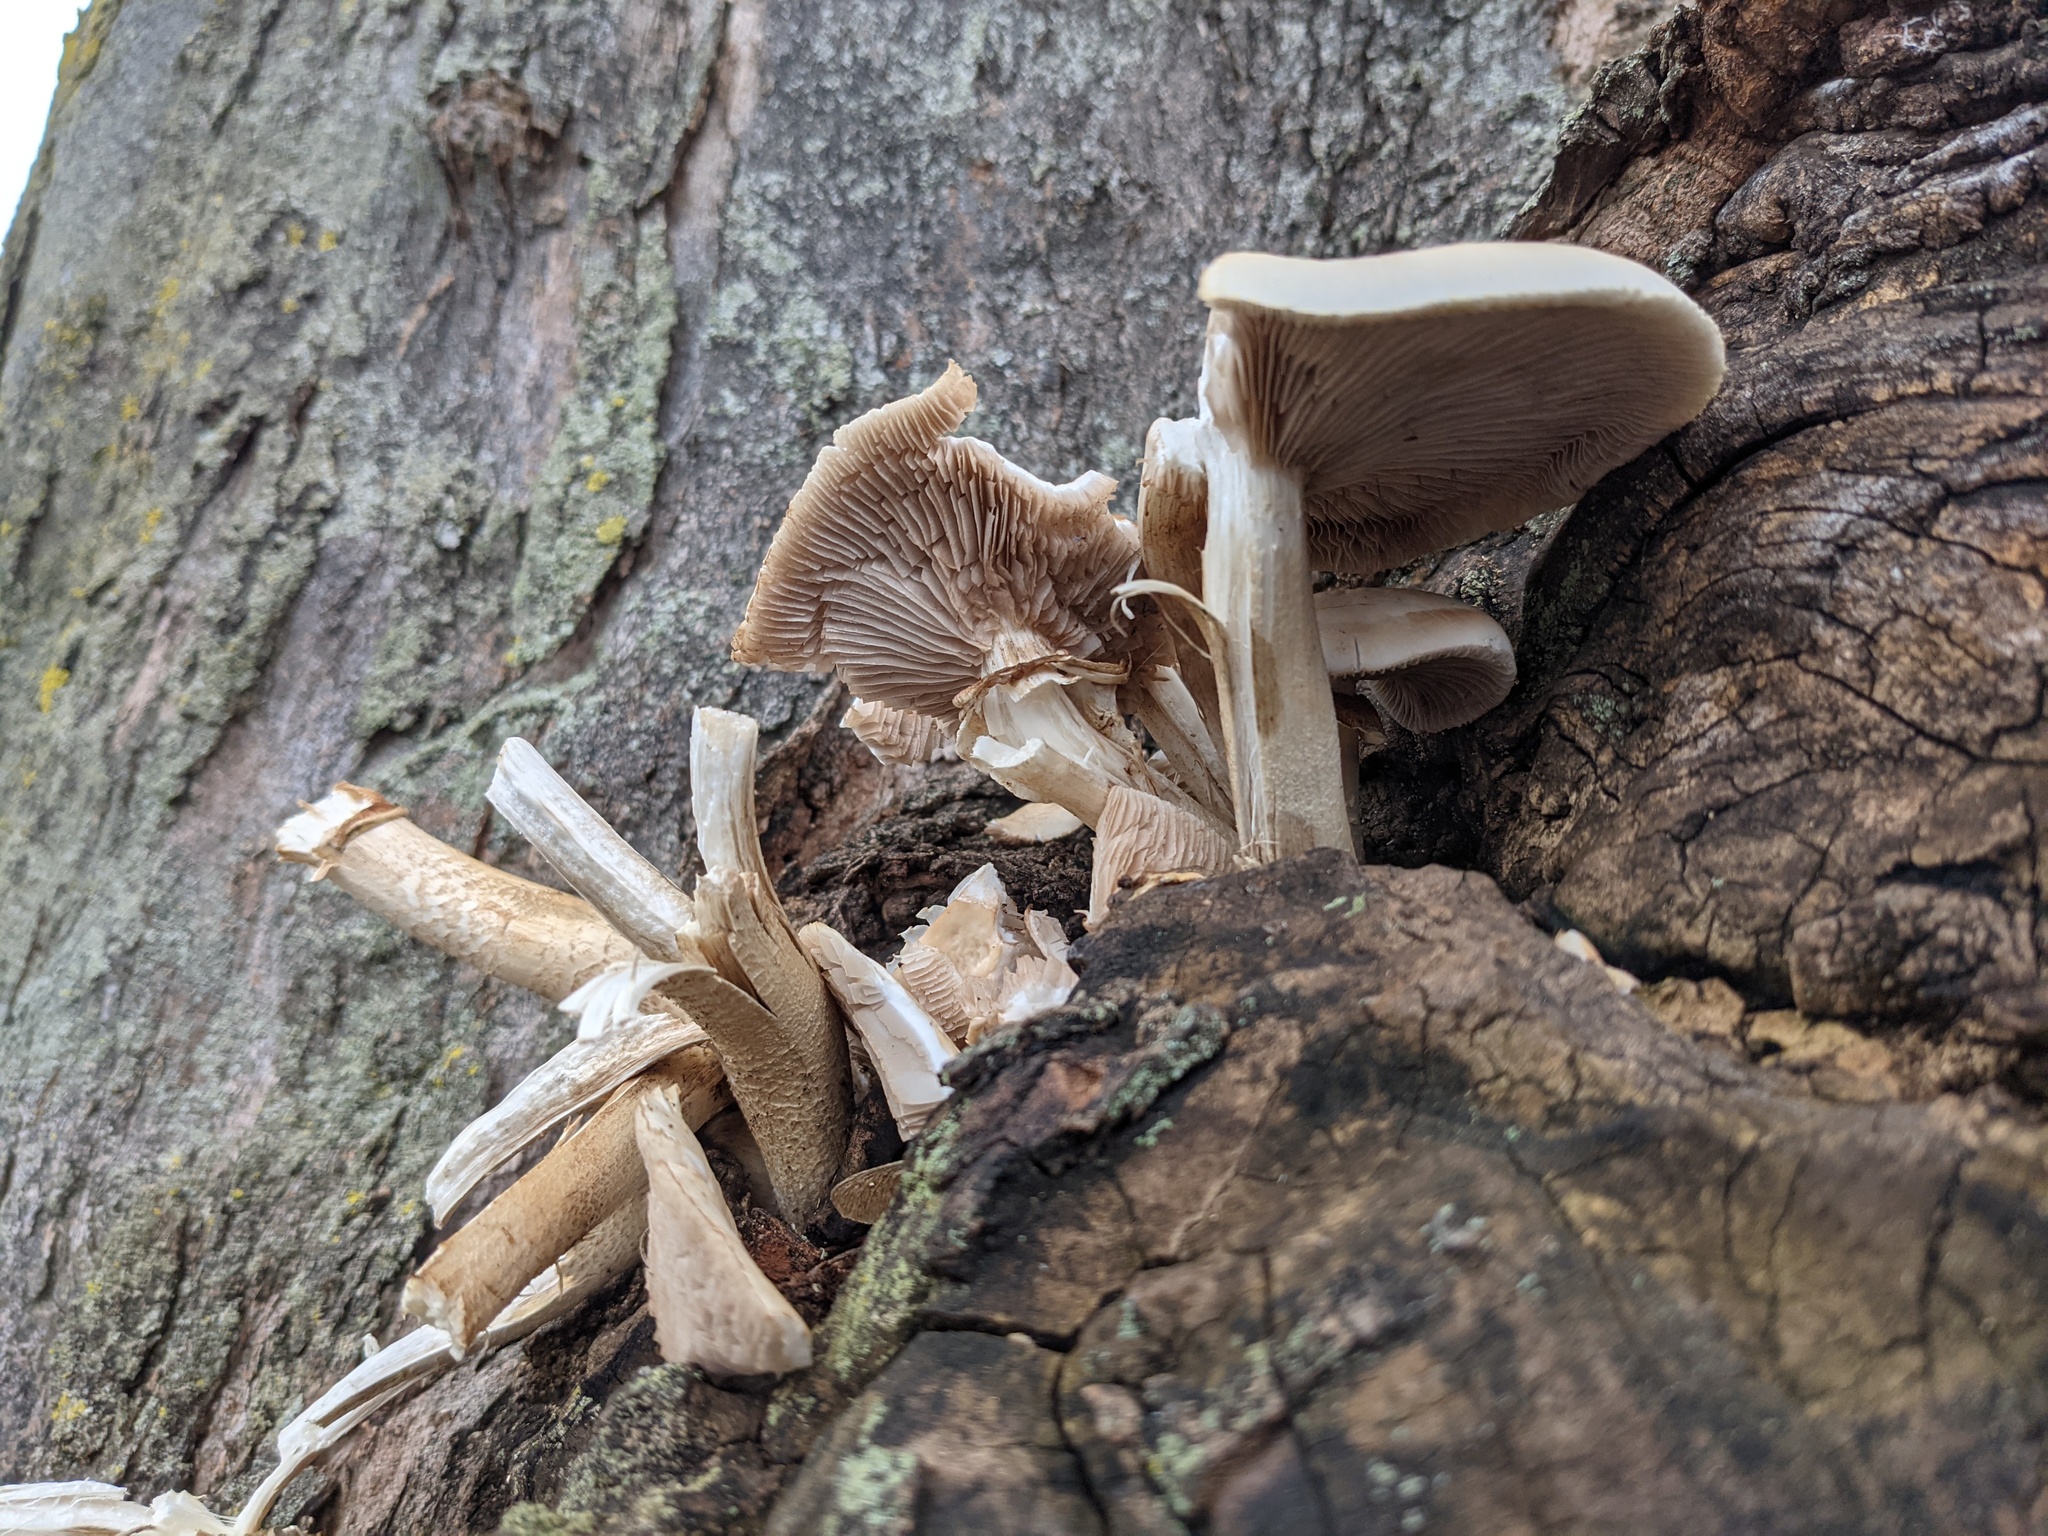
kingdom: Fungi
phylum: Basidiomycota
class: Agaricomycetes
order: Agaricales
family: Tubariaceae
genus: Cyclocybe
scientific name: Cyclocybe cylindracea
